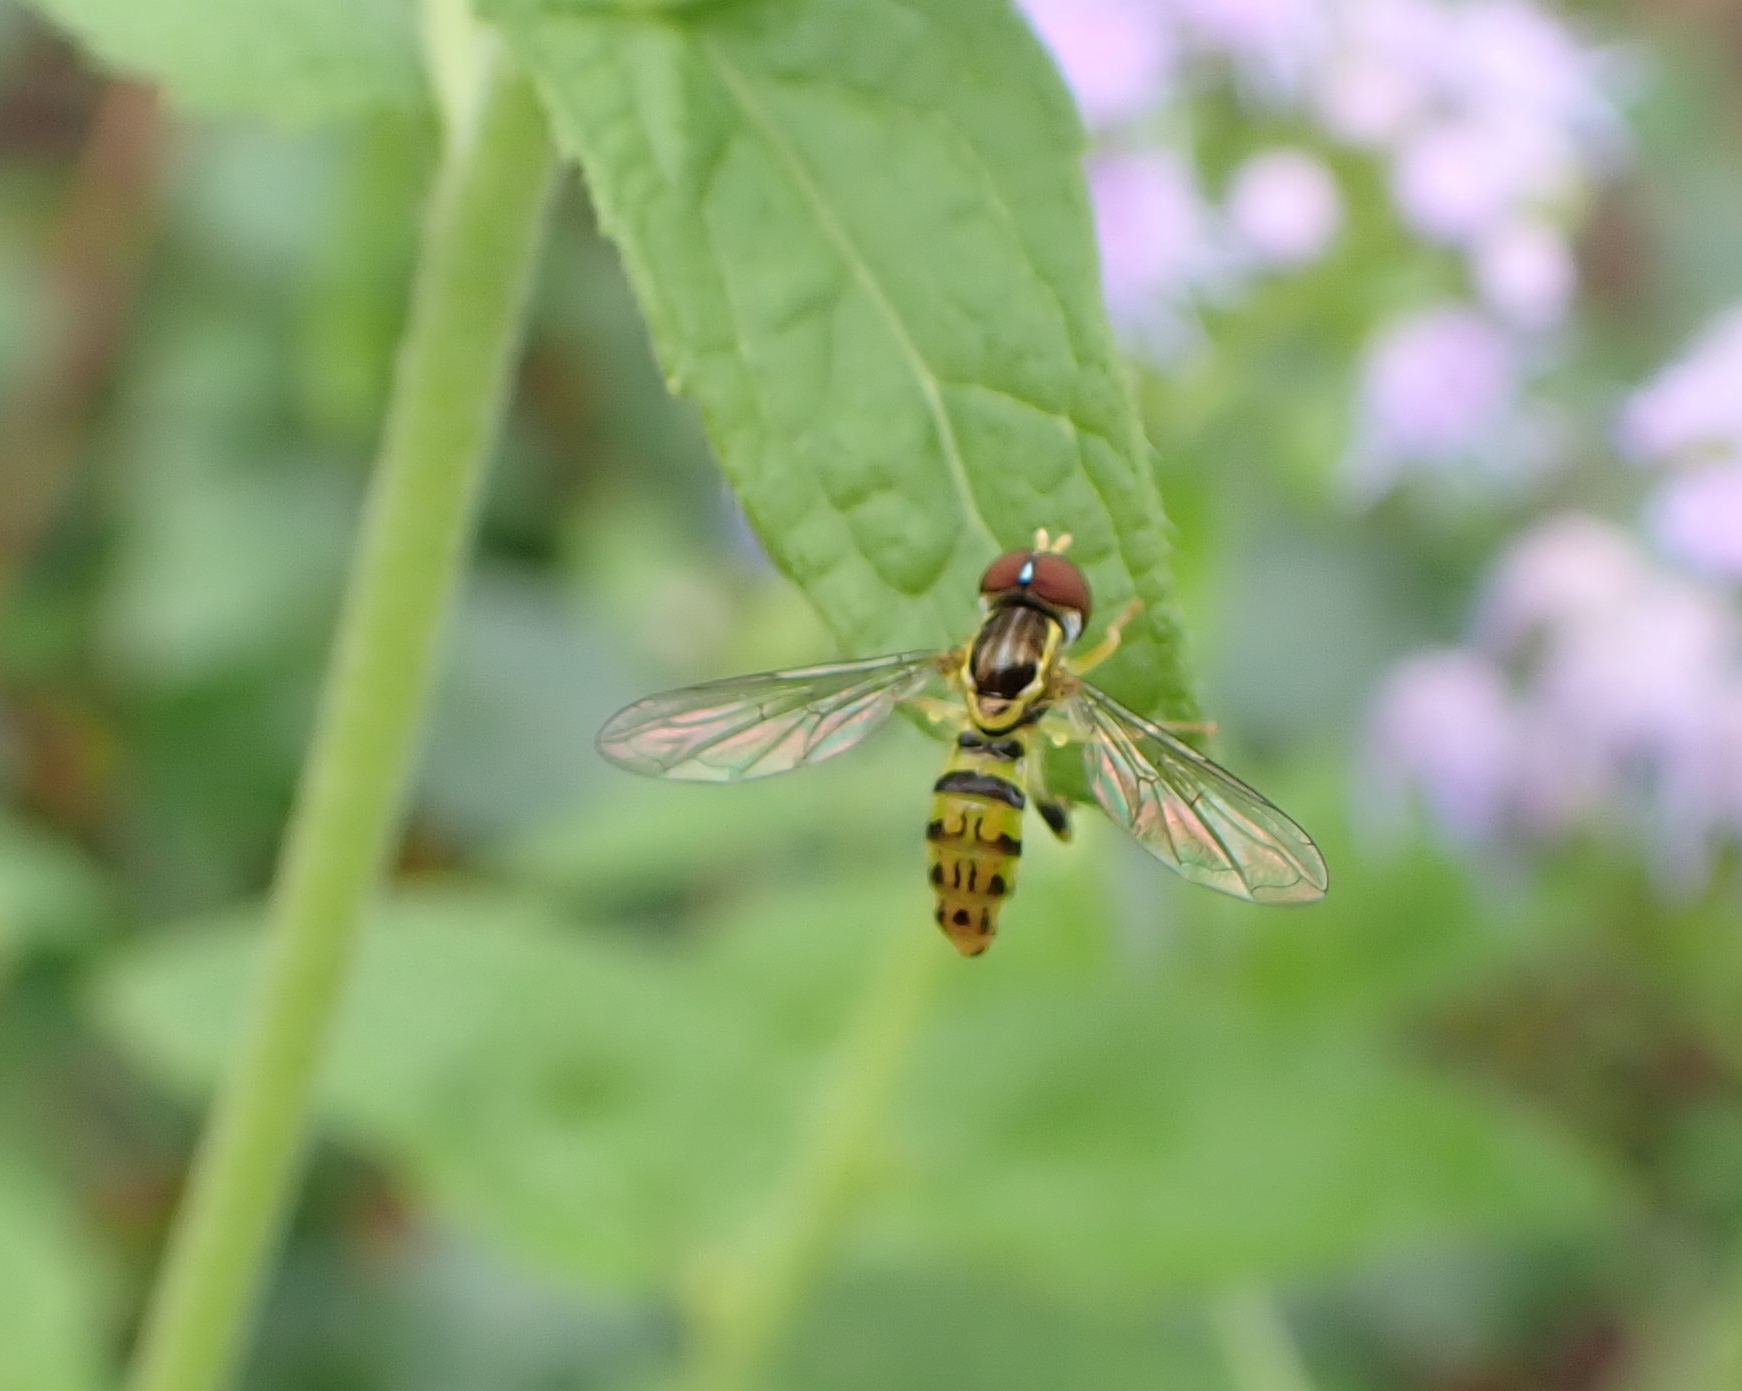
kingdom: Animalia
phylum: Arthropoda
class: Insecta
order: Diptera
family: Syrphidae
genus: Toxomerus
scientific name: Toxomerus geminatus
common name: Eastern calligrapher
